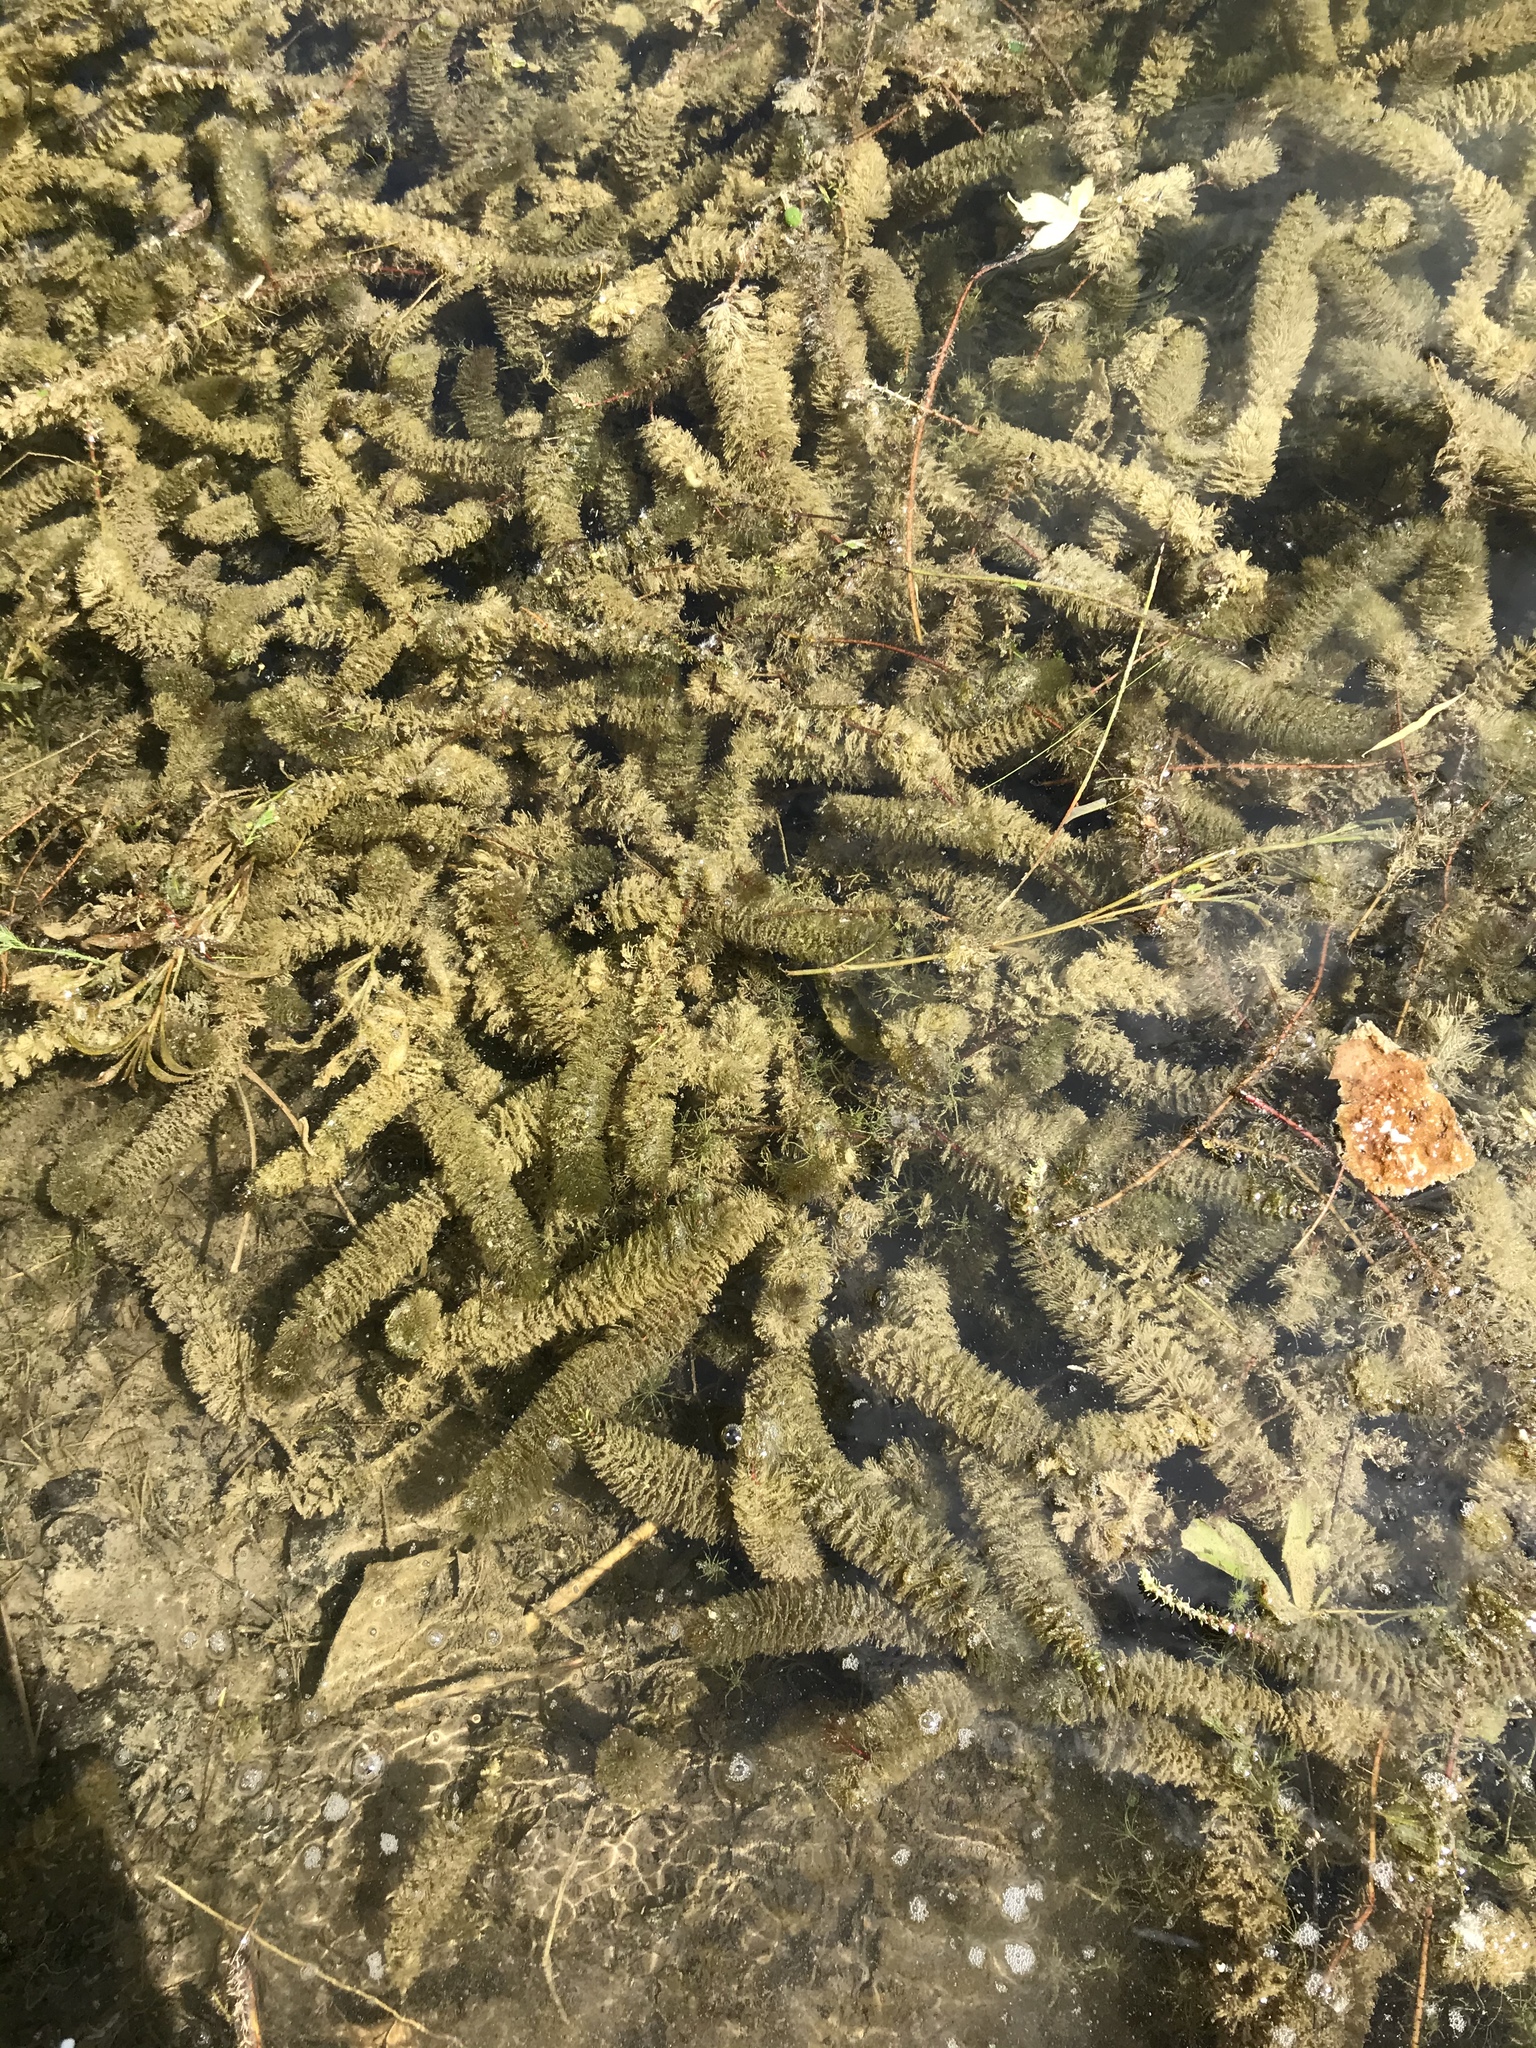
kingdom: Plantae
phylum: Tracheophyta
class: Magnoliopsida
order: Saxifragales
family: Haloragaceae
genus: Myriophyllum
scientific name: Myriophyllum heterophyllum
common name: Variable watermilfoil
